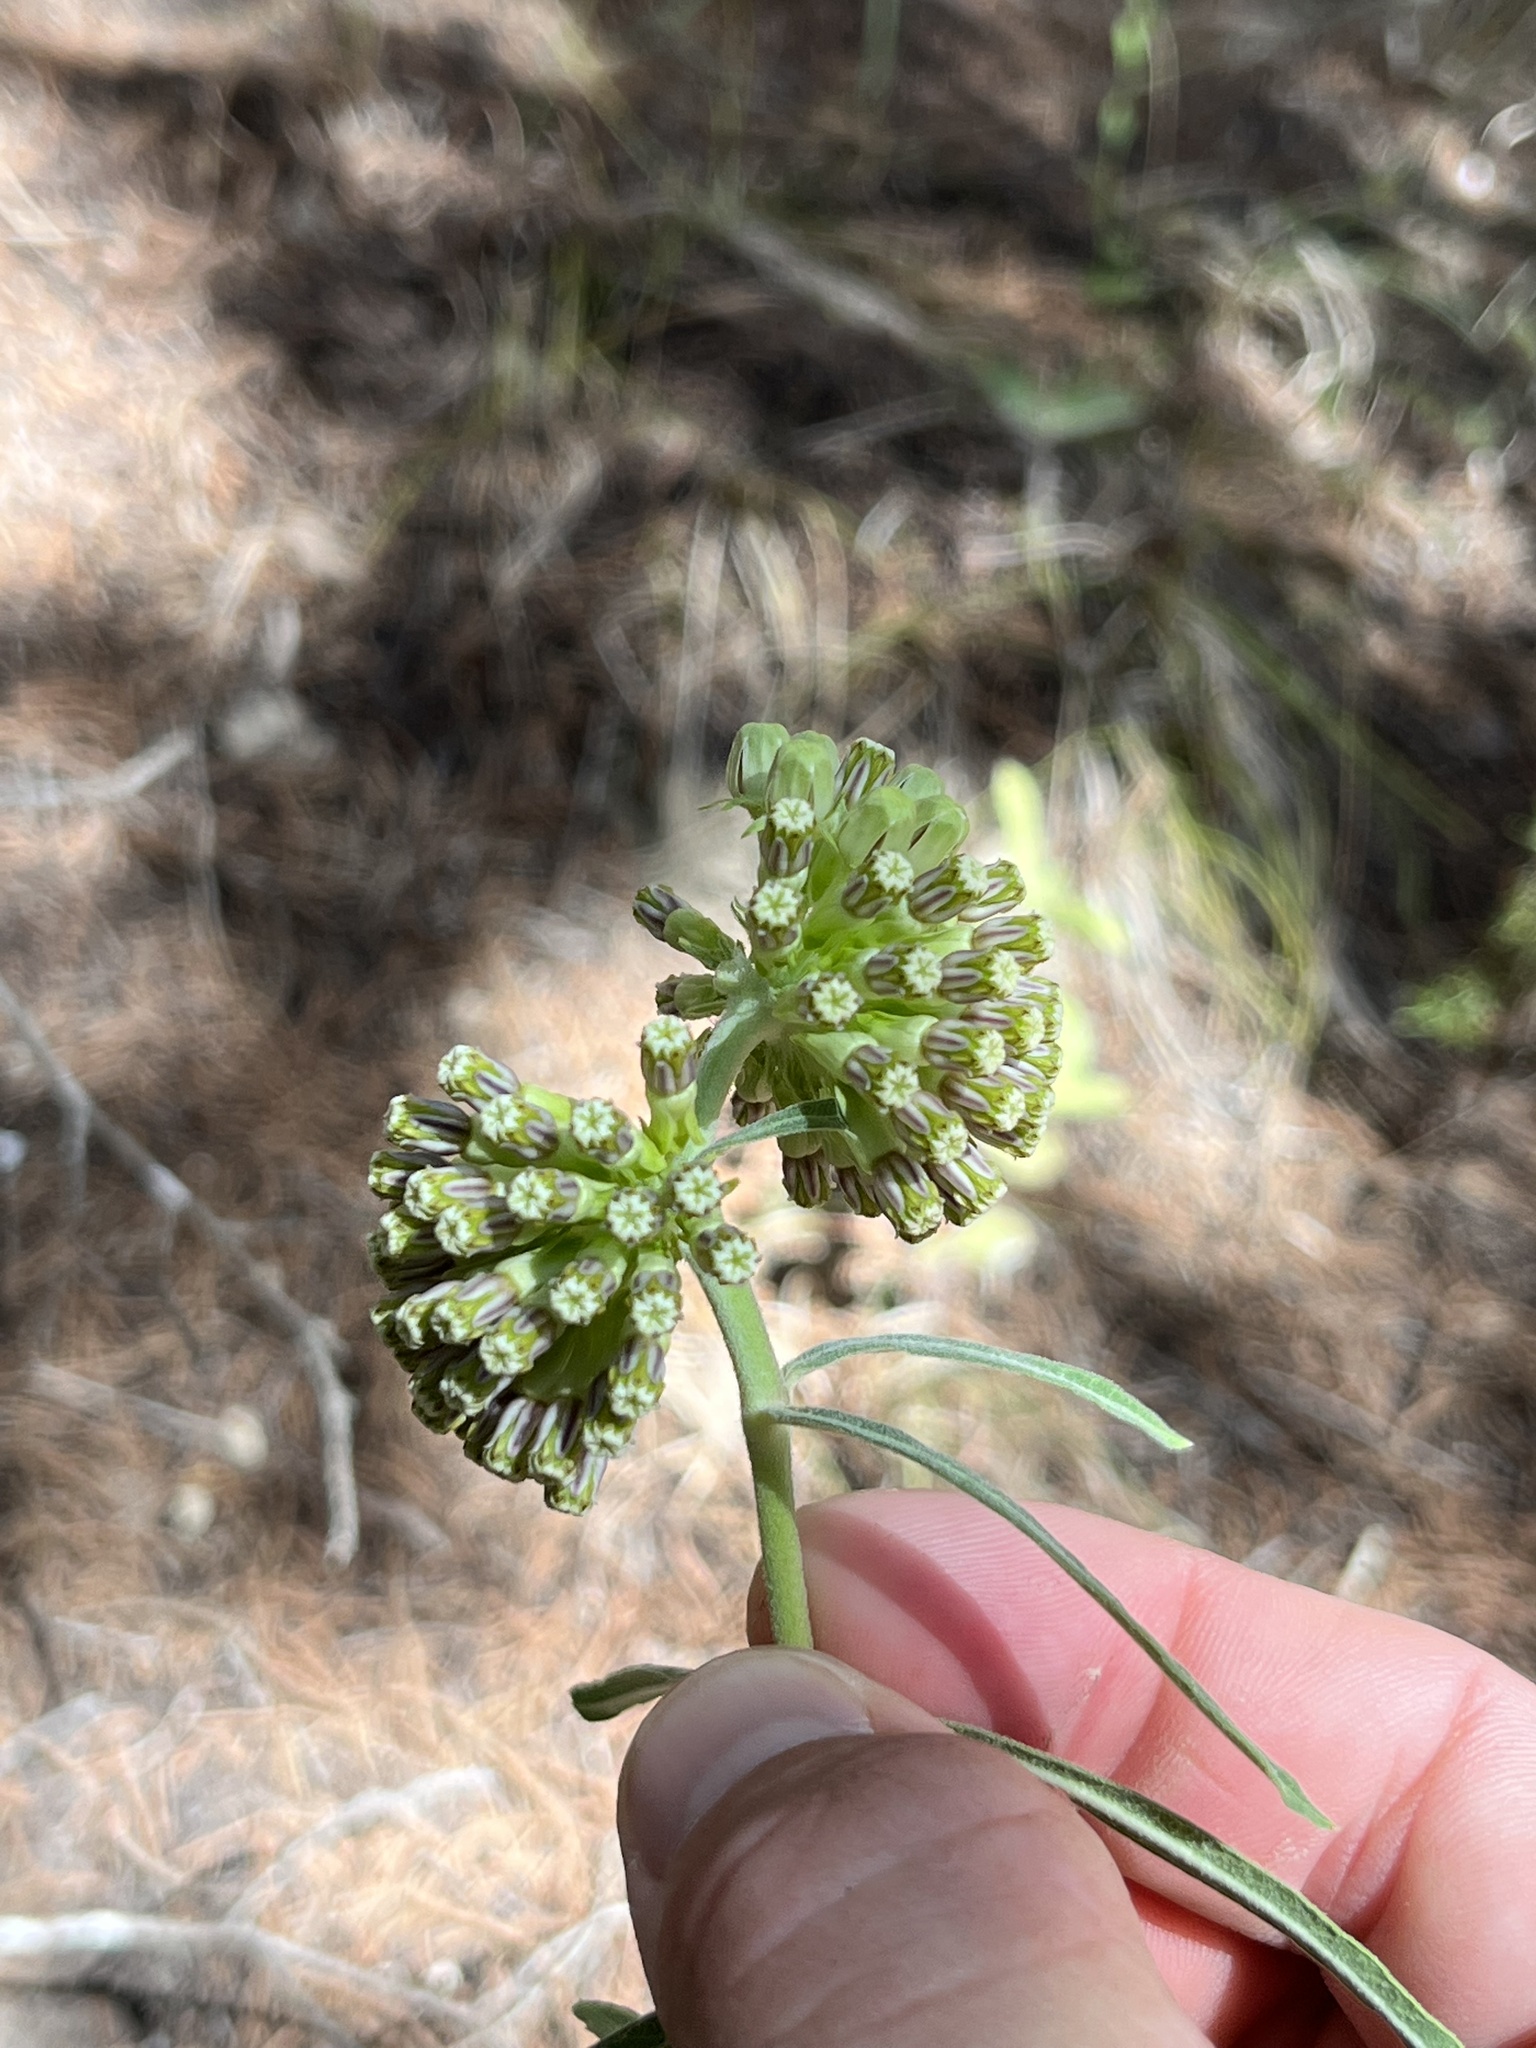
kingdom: Plantae
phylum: Tracheophyta
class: Magnoliopsida
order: Gentianales
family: Apocynaceae
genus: Asclepias
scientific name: Asclepias viridiflora
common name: Green comet milkweed
